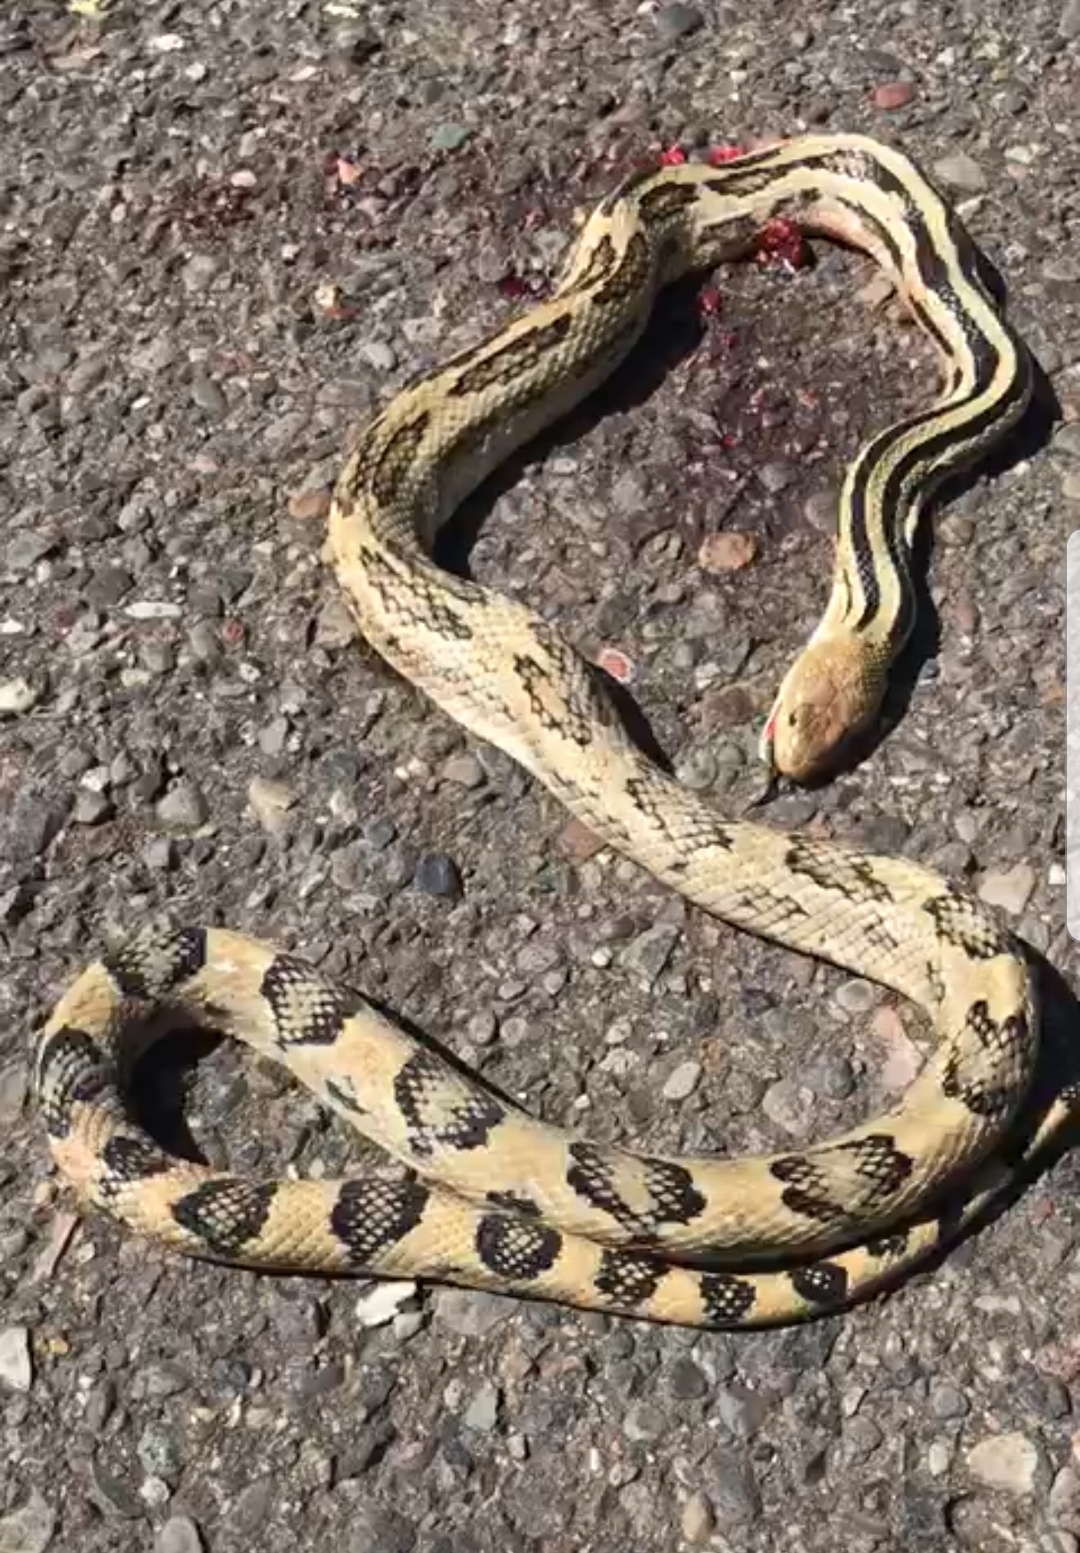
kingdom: Animalia
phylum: Chordata
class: Squamata
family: Colubridae
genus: Pituophis
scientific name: Pituophis lineaticollis
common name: Cincuate bull snake
